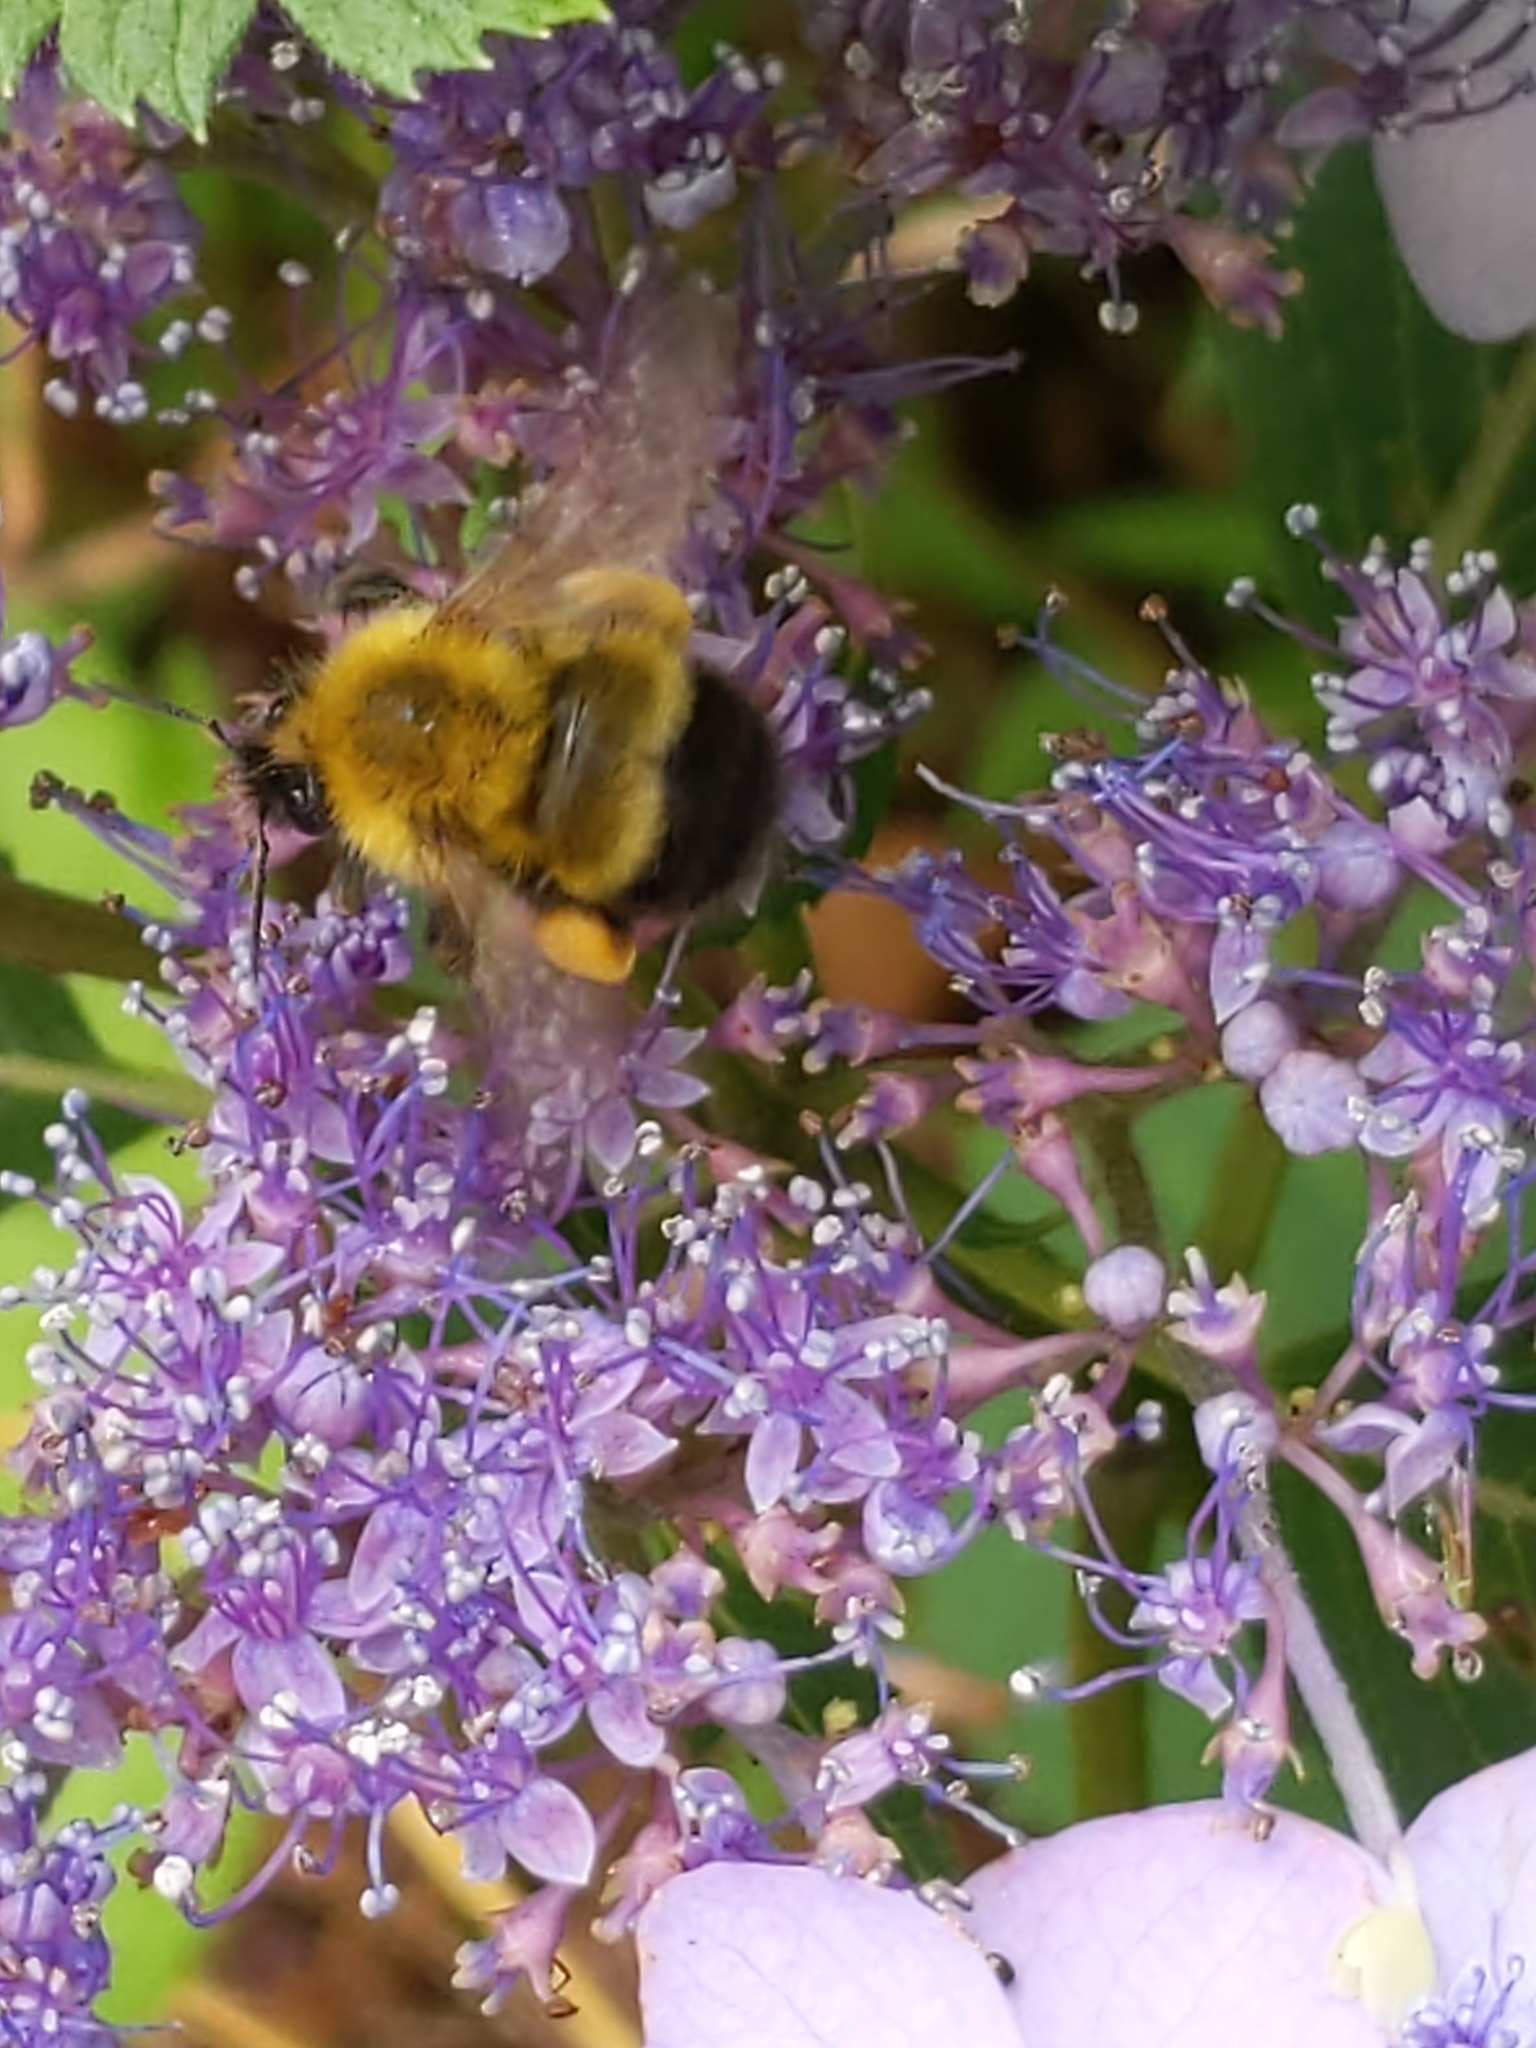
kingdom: Animalia
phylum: Arthropoda
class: Insecta
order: Hymenoptera
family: Apidae
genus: Bombus
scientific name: Bombus perplexus
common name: Confusing bumble bee
